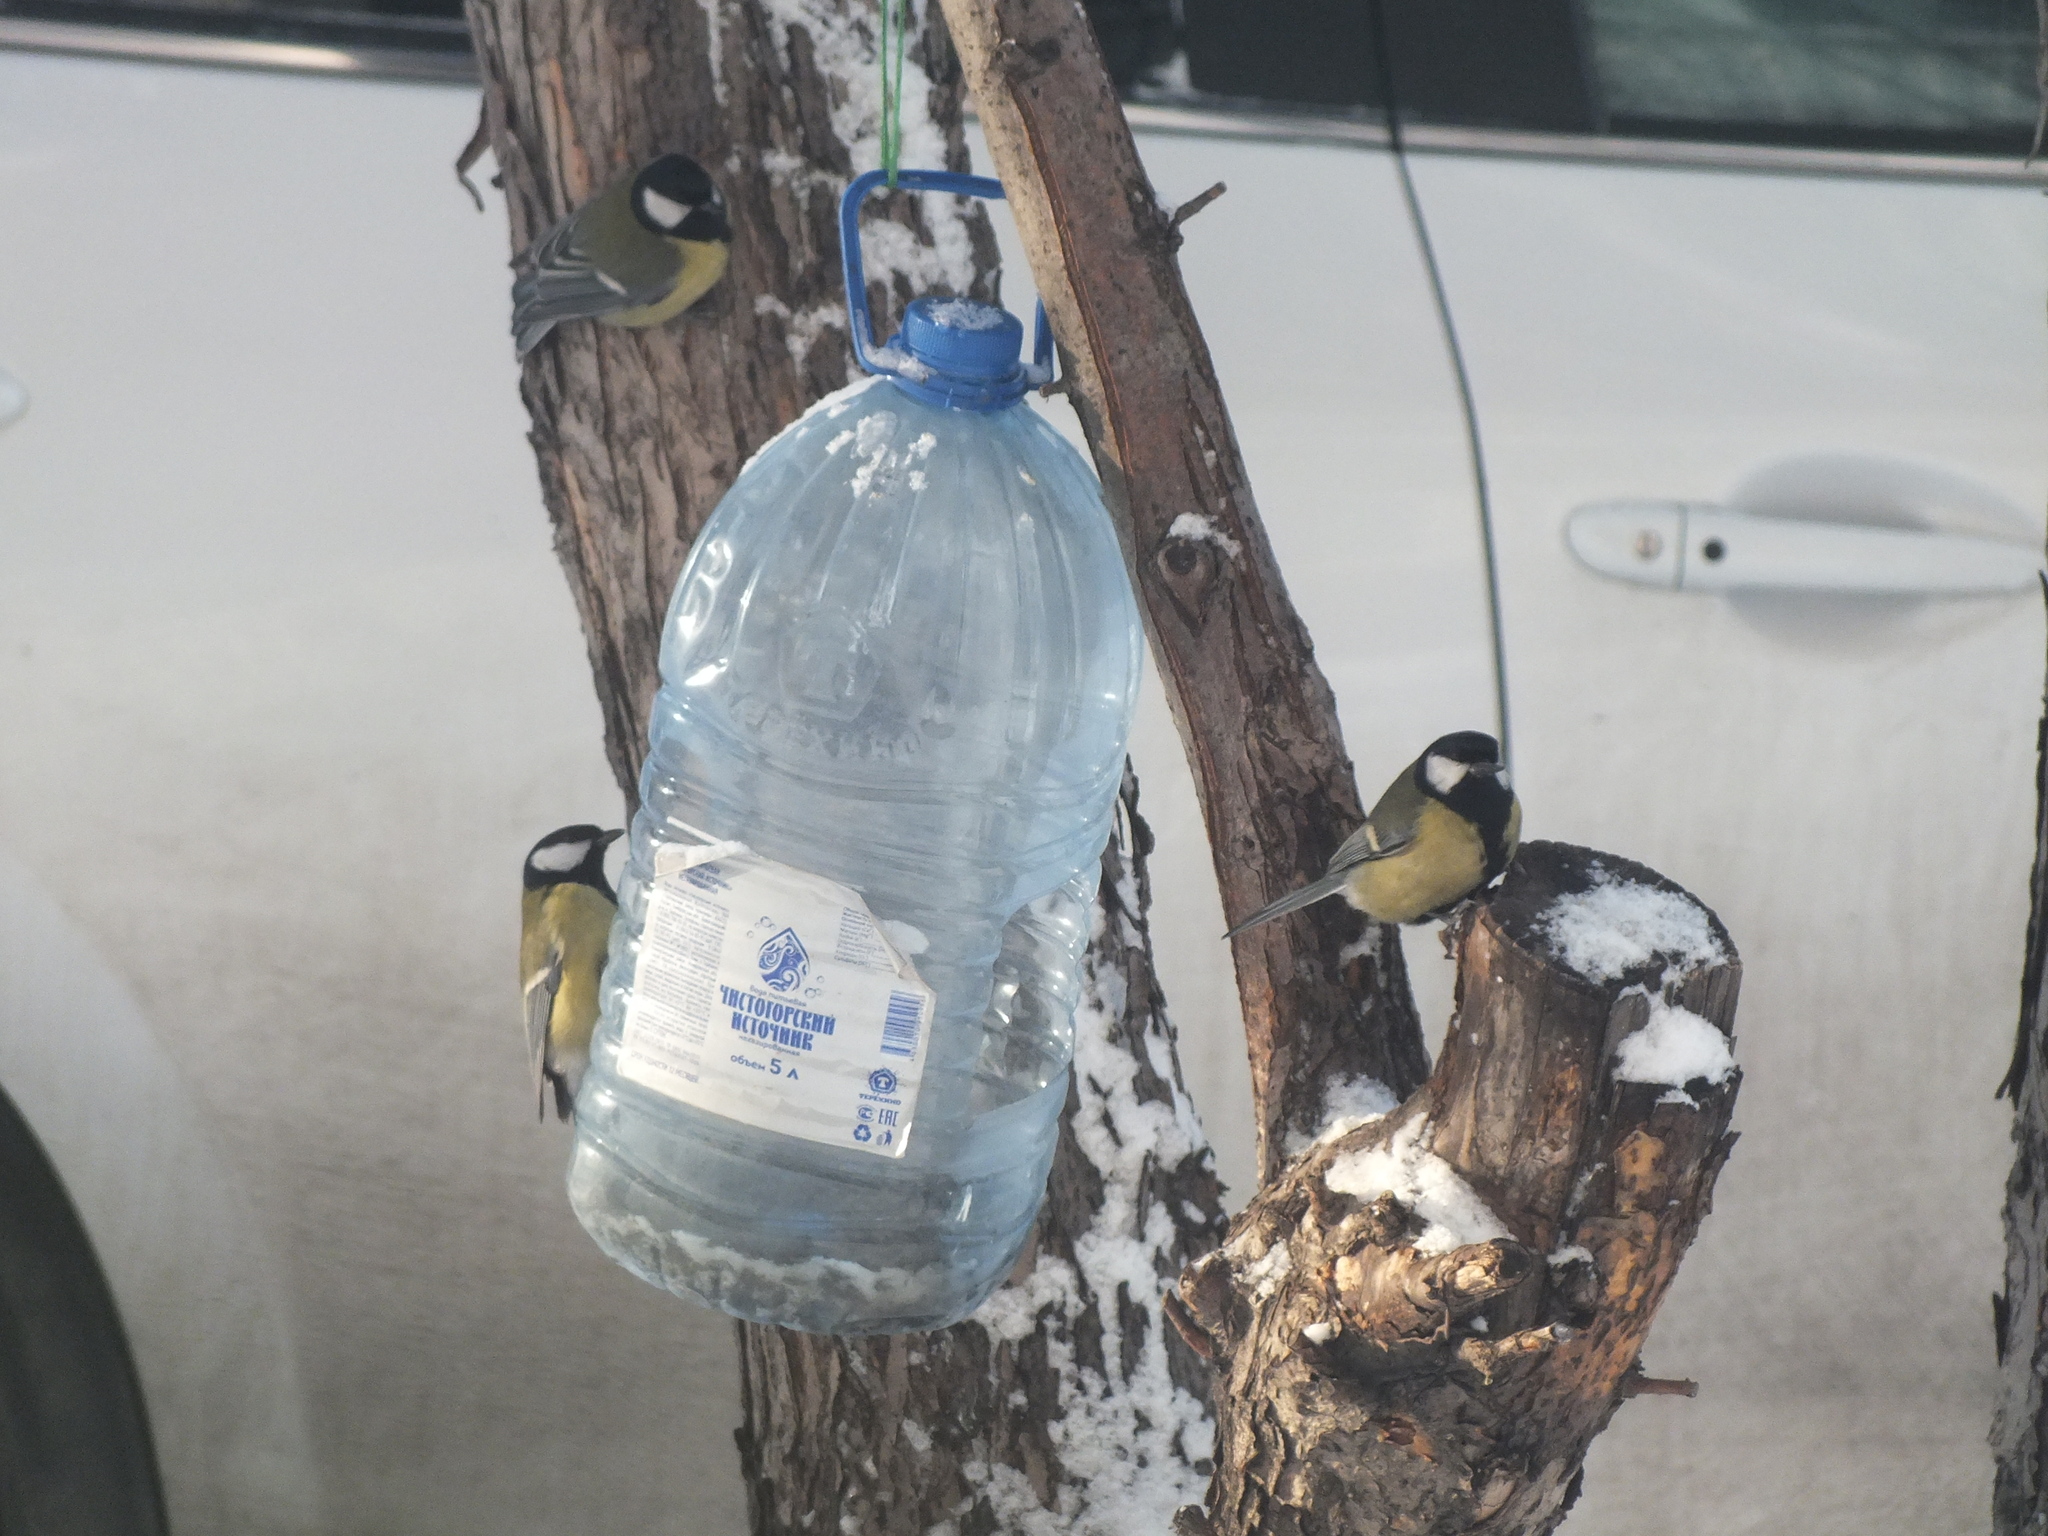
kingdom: Animalia
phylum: Chordata
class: Aves
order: Passeriformes
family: Paridae
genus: Parus
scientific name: Parus major
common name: Great tit
